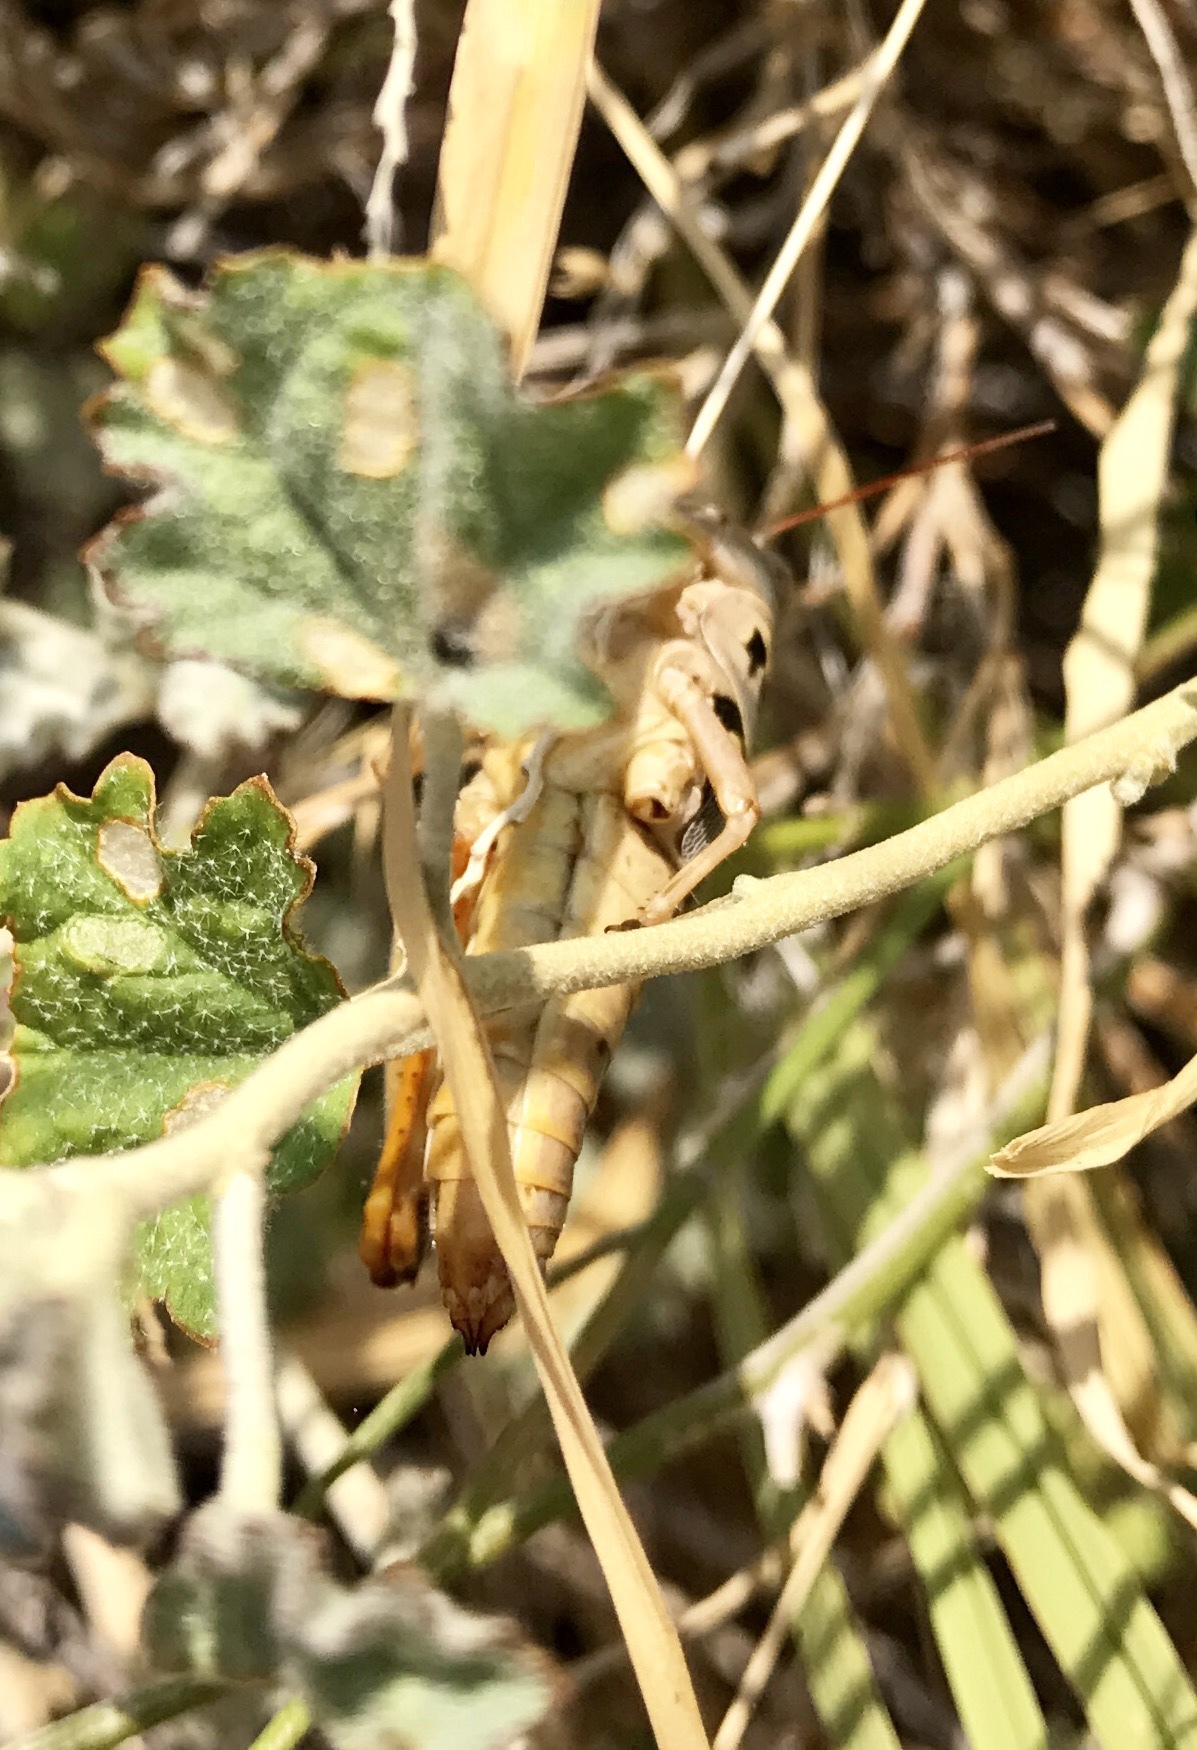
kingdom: Animalia
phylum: Arthropoda
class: Insecta
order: Orthoptera
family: Acrididae
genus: Barytettix
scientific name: Barytettix humphreysii
